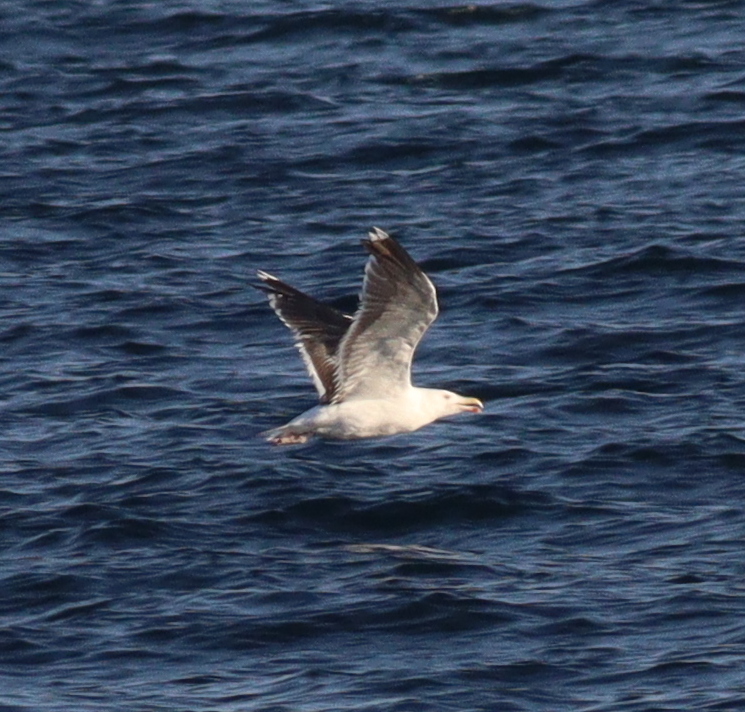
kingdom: Animalia
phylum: Chordata
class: Aves
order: Charadriiformes
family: Laridae
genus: Larus
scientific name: Larus marinus
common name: Great black-backed gull
